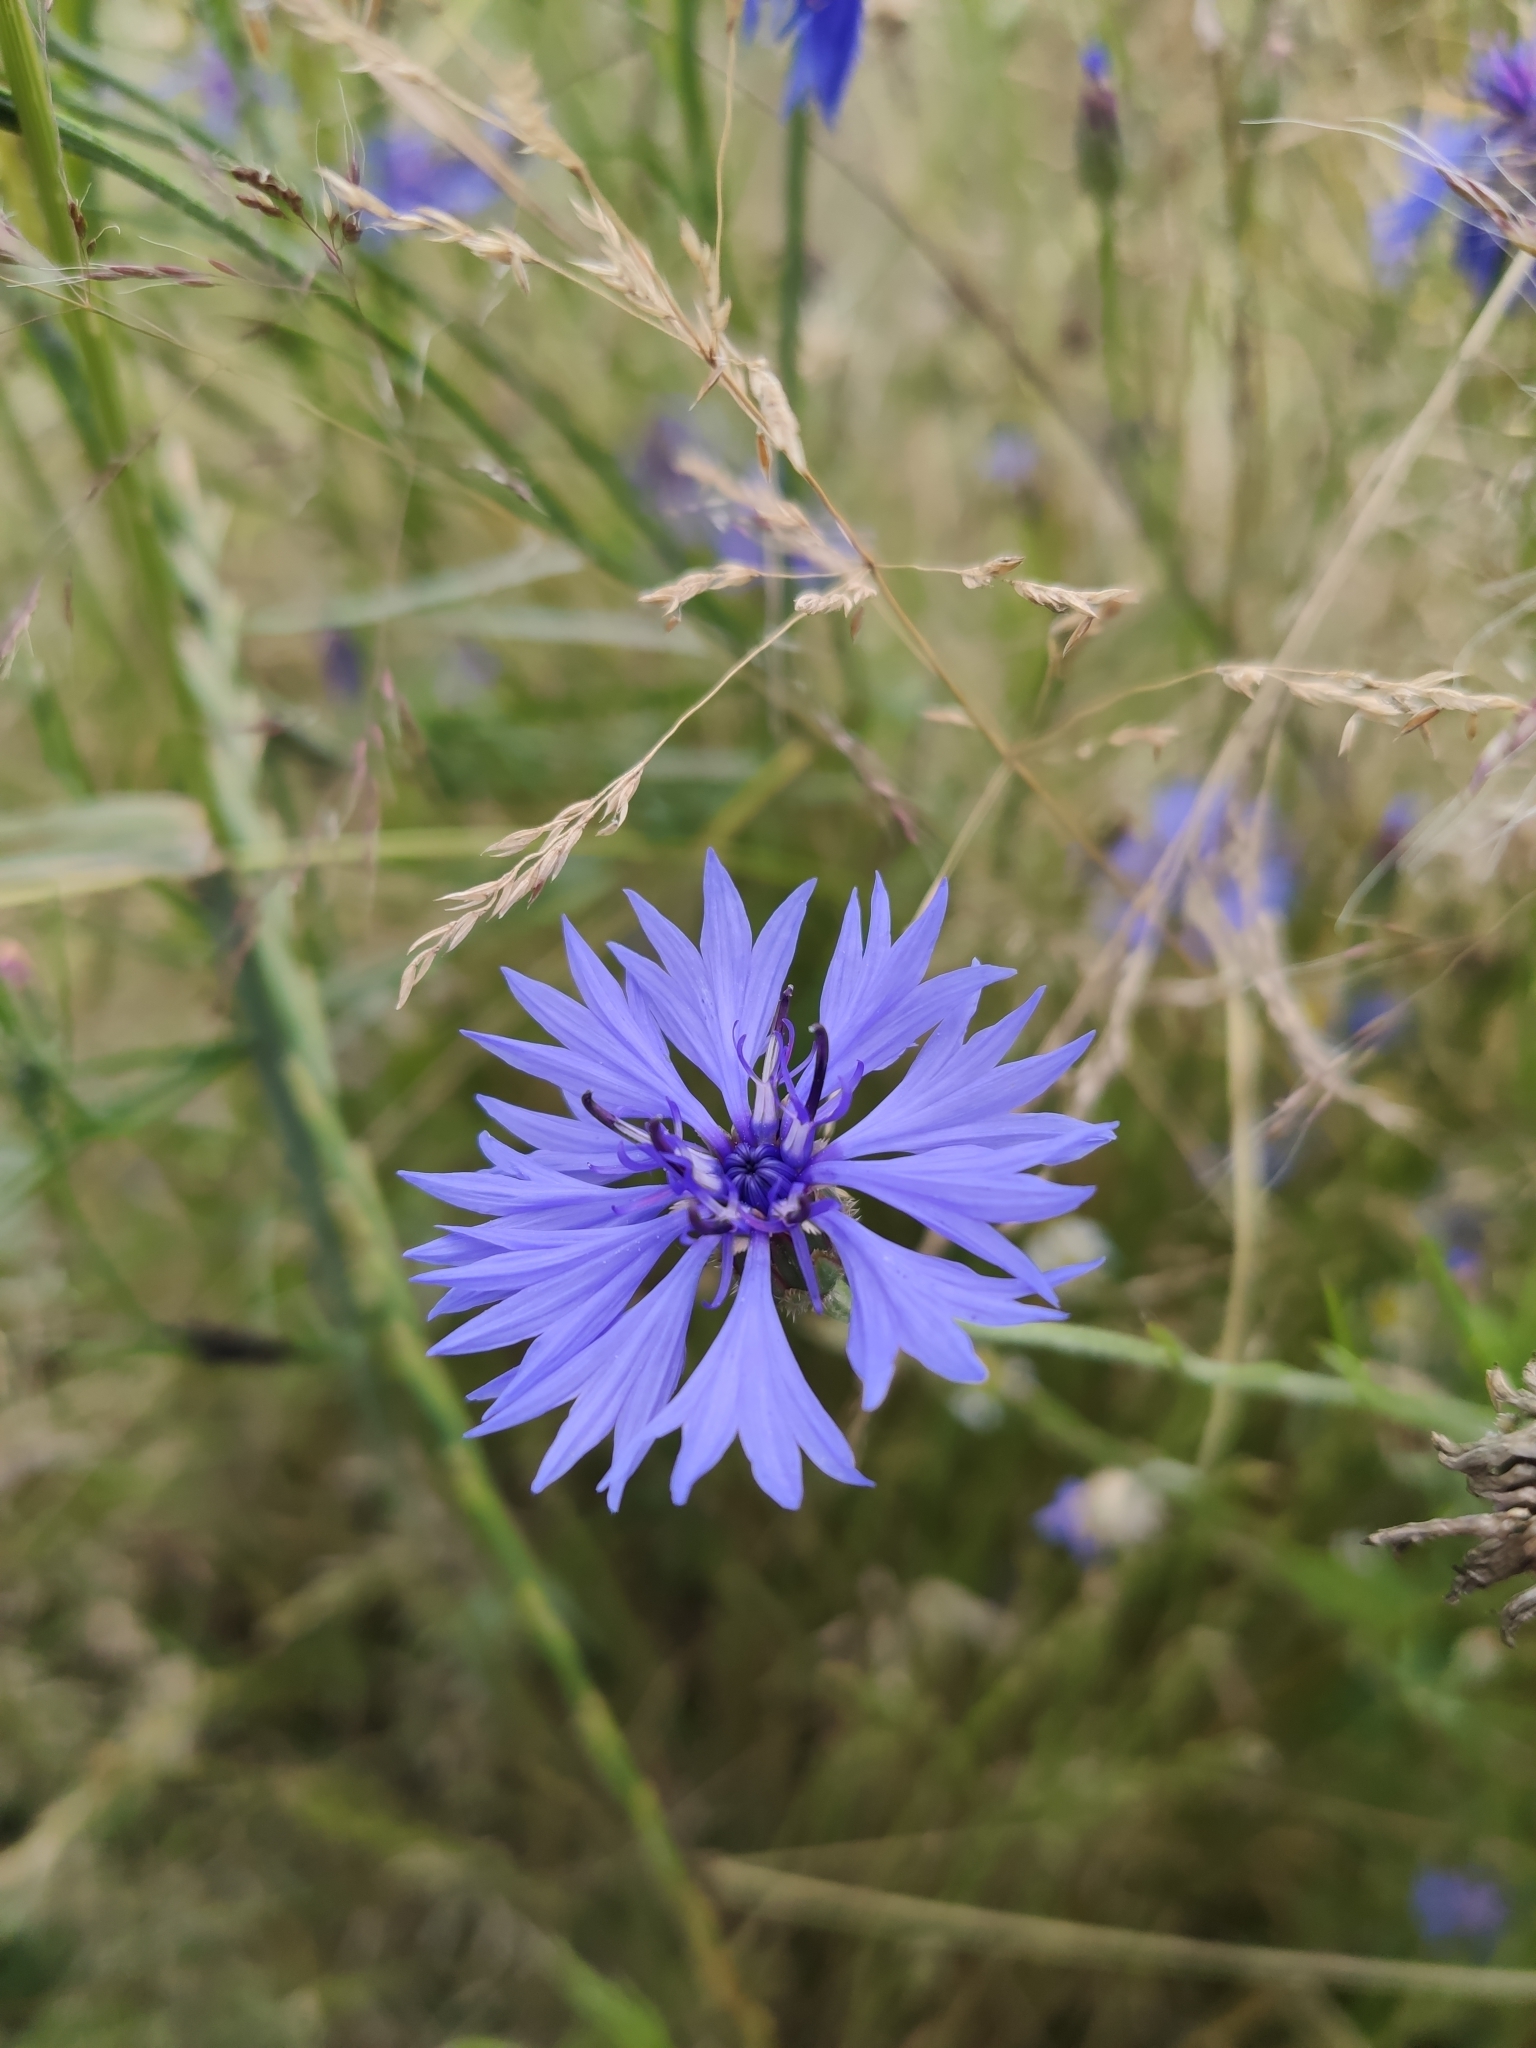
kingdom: Plantae
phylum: Tracheophyta
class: Magnoliopsida
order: Asterales
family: Asteraceae
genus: Centaurea
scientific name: Centaurea cyanus
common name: Cornflower
